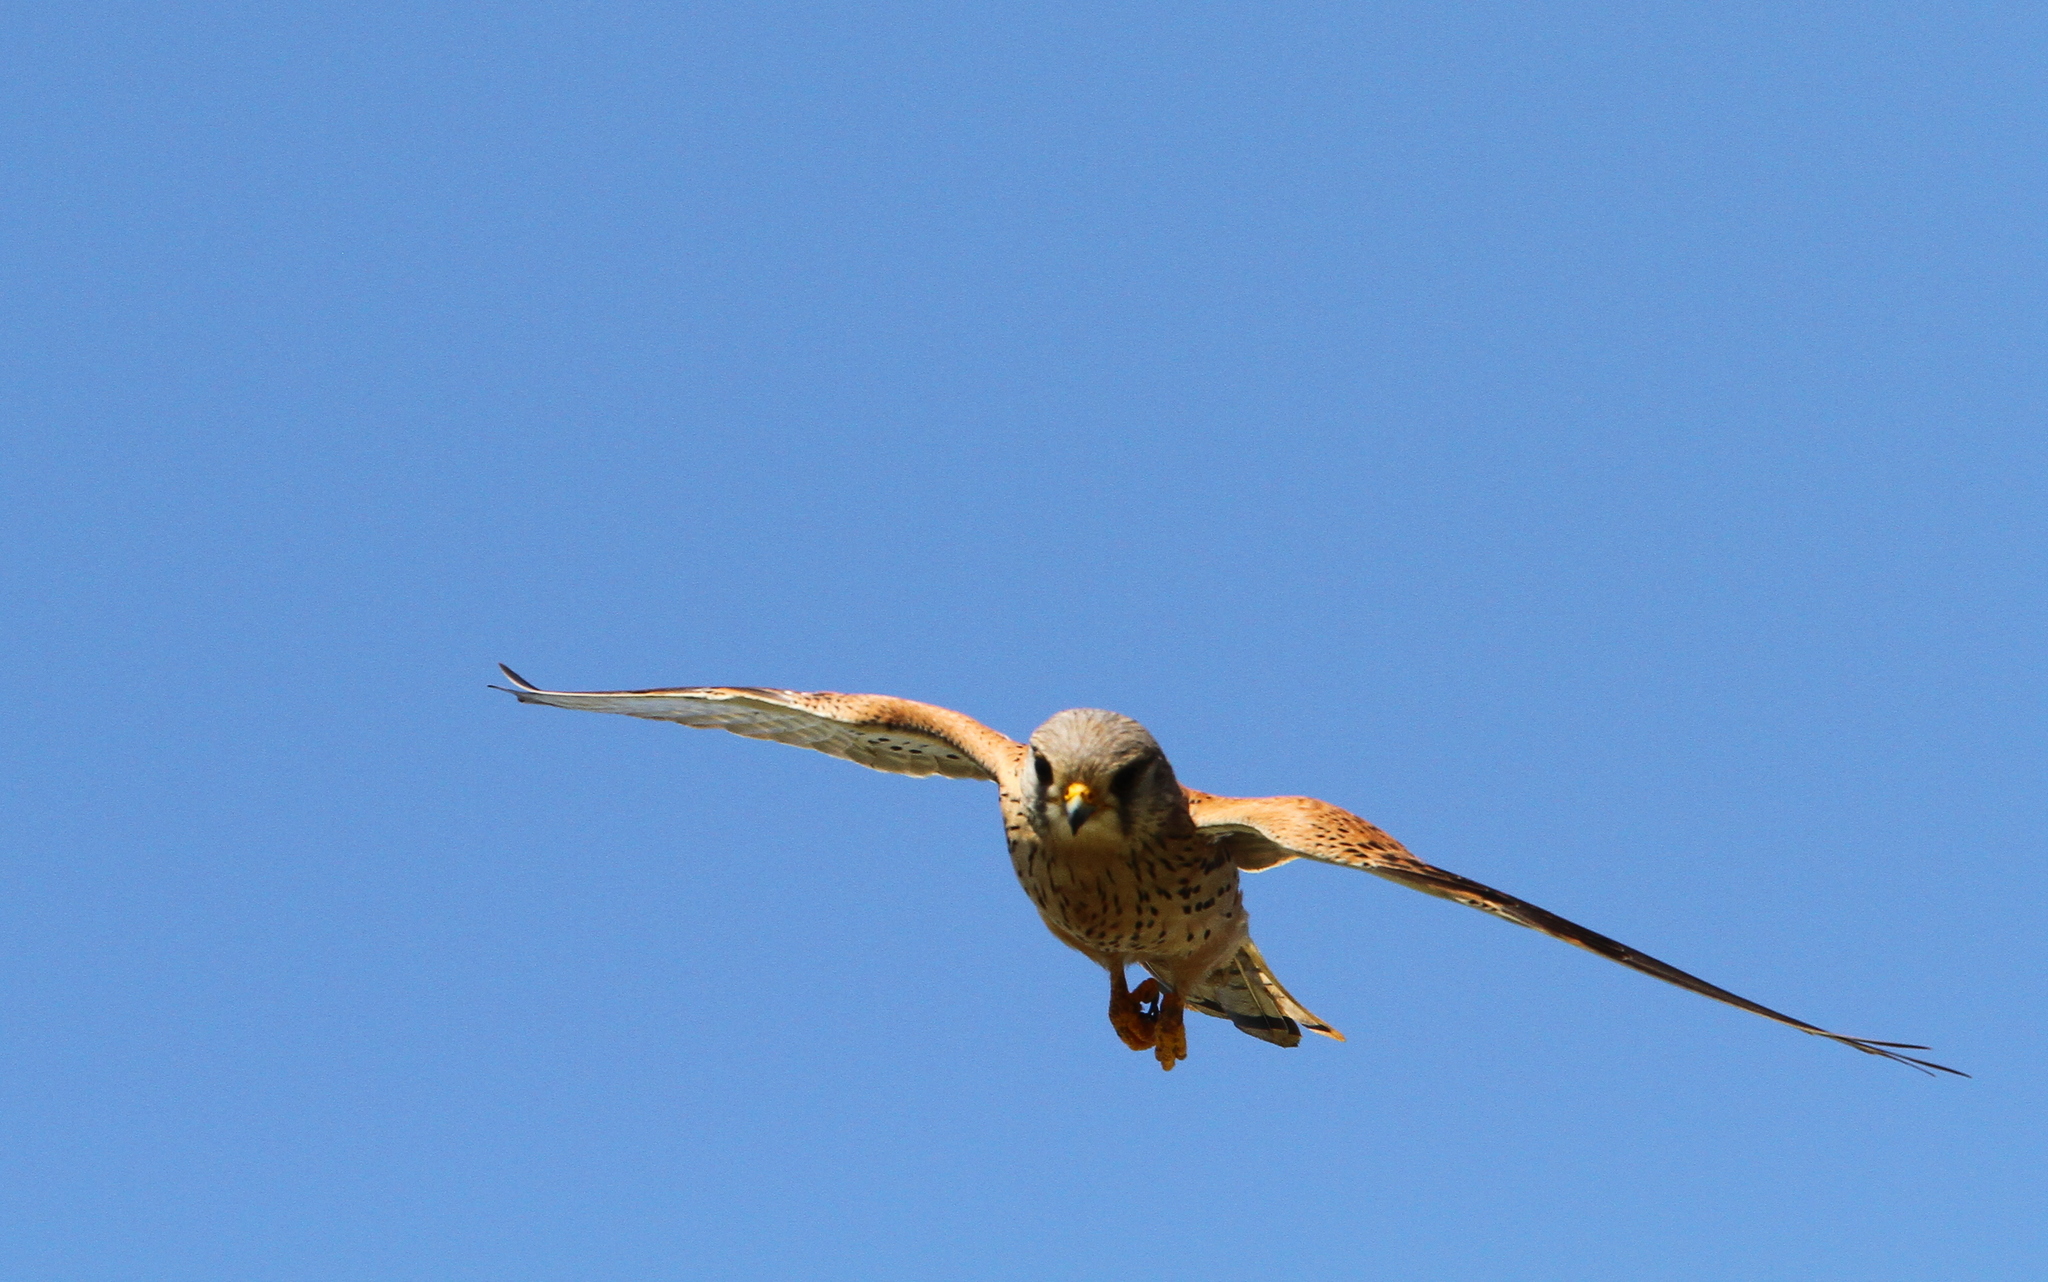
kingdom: Animalia
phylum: Chordata
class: Aves
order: Falconiformes
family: Falconidae
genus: Falco
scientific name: Falco tinnunculus
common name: Common kestrel
